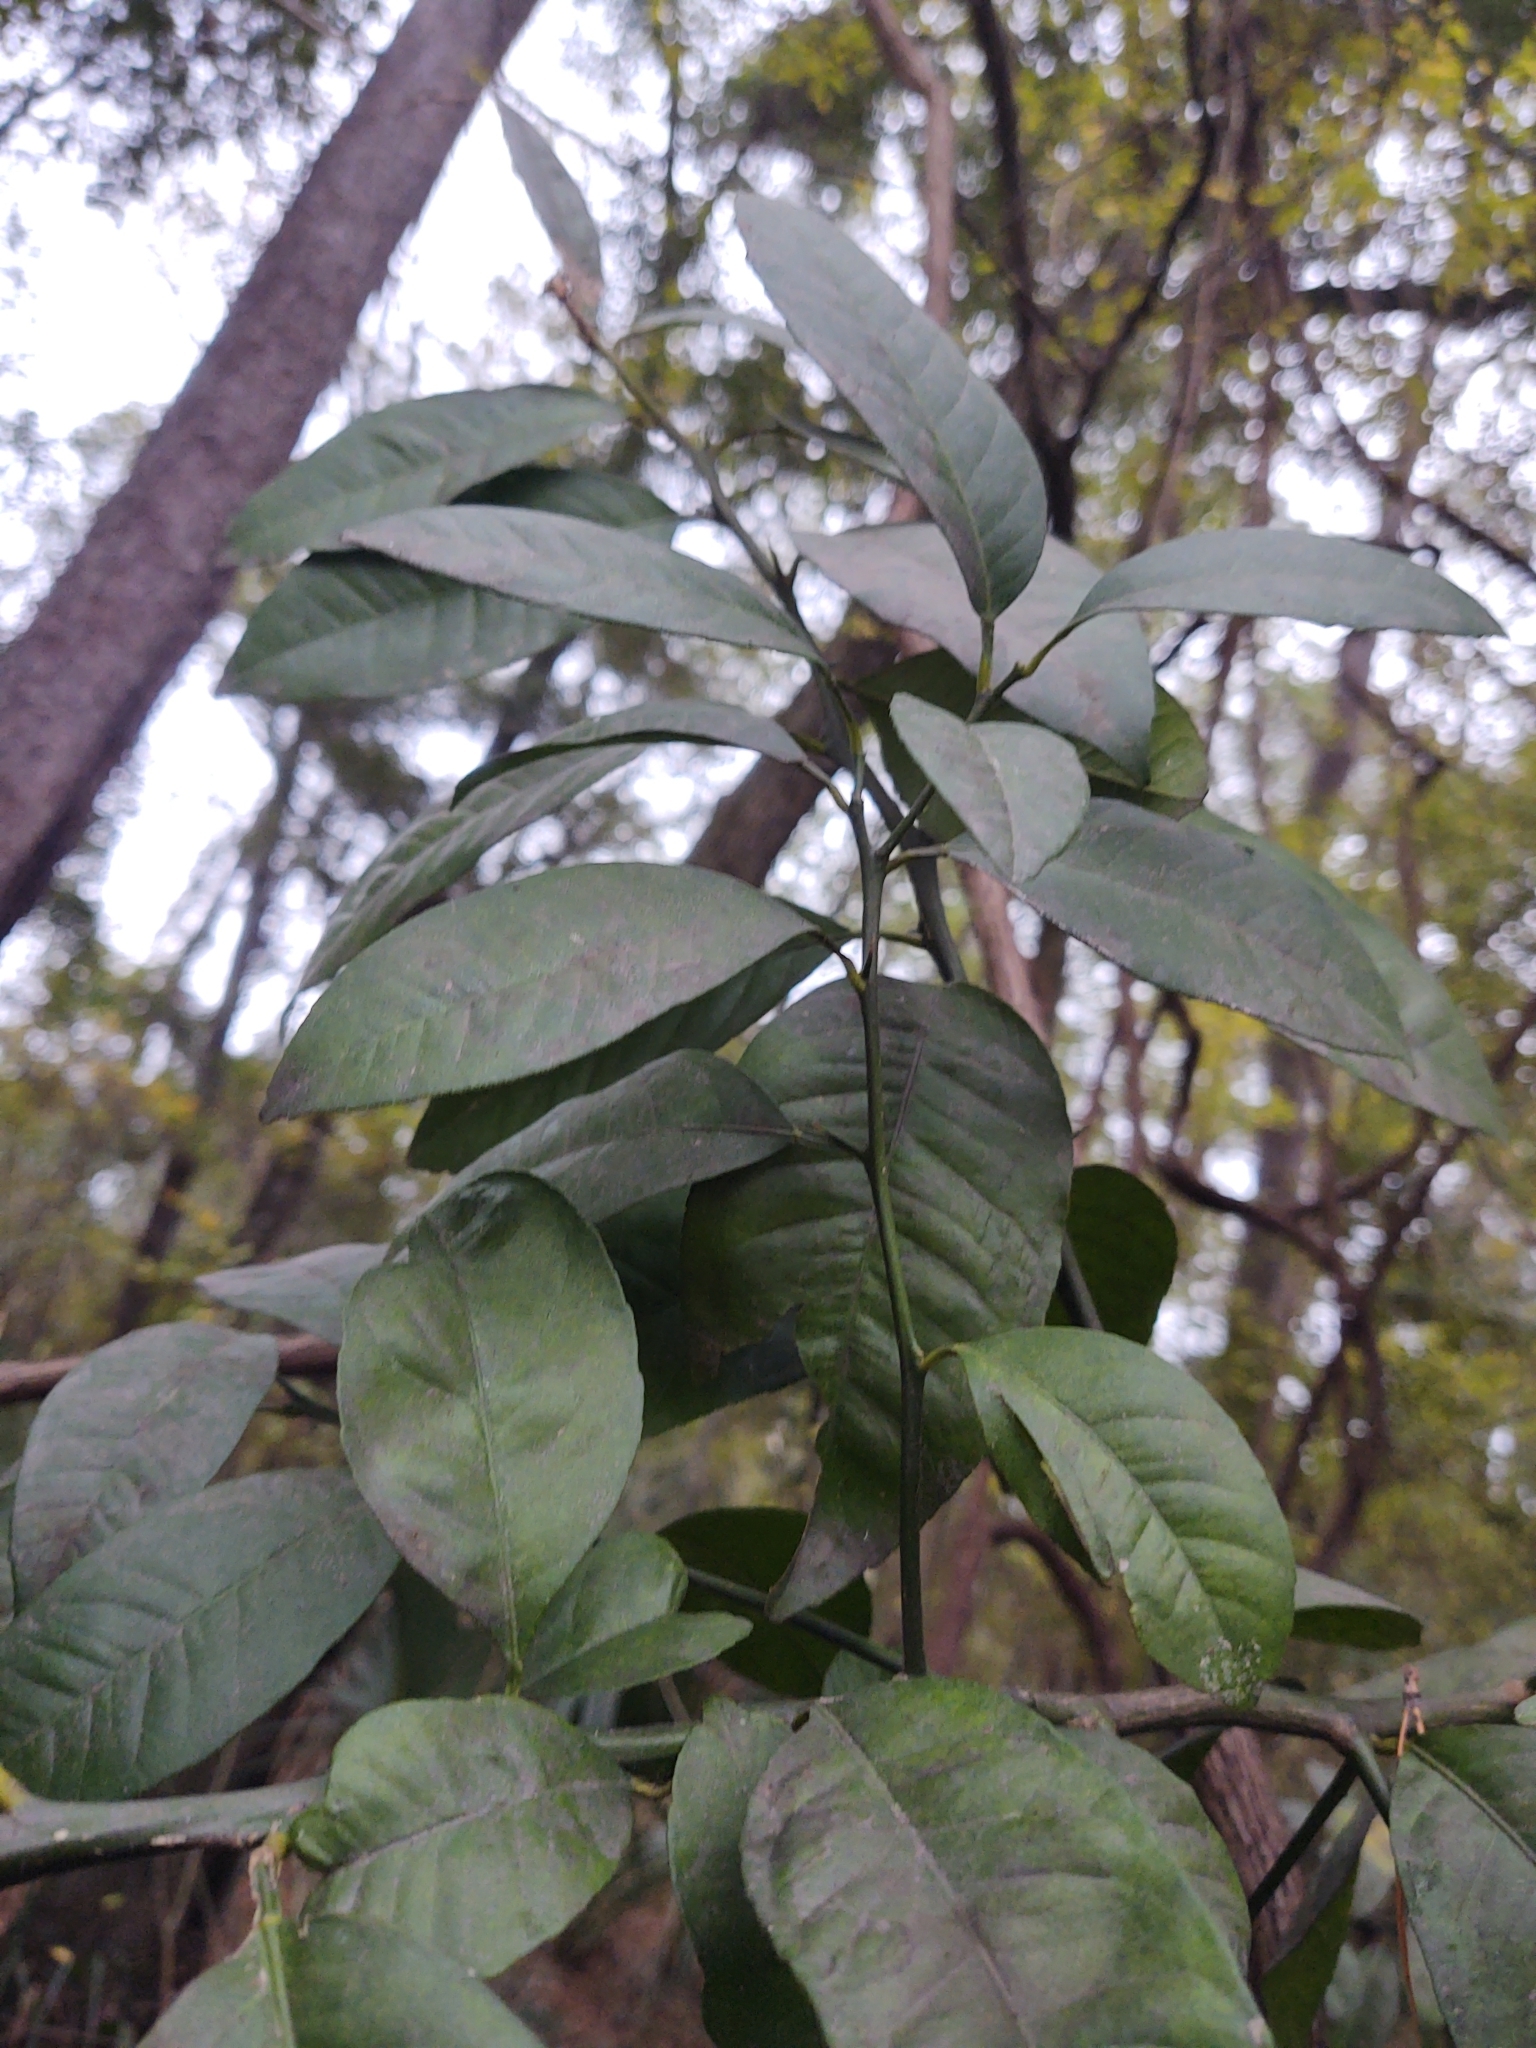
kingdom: Plantae
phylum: Tracheophyta
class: Magnoliopsida
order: Sapindales
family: Rutaceae
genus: Citrus
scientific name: Citrus aurantium
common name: Sour orange
